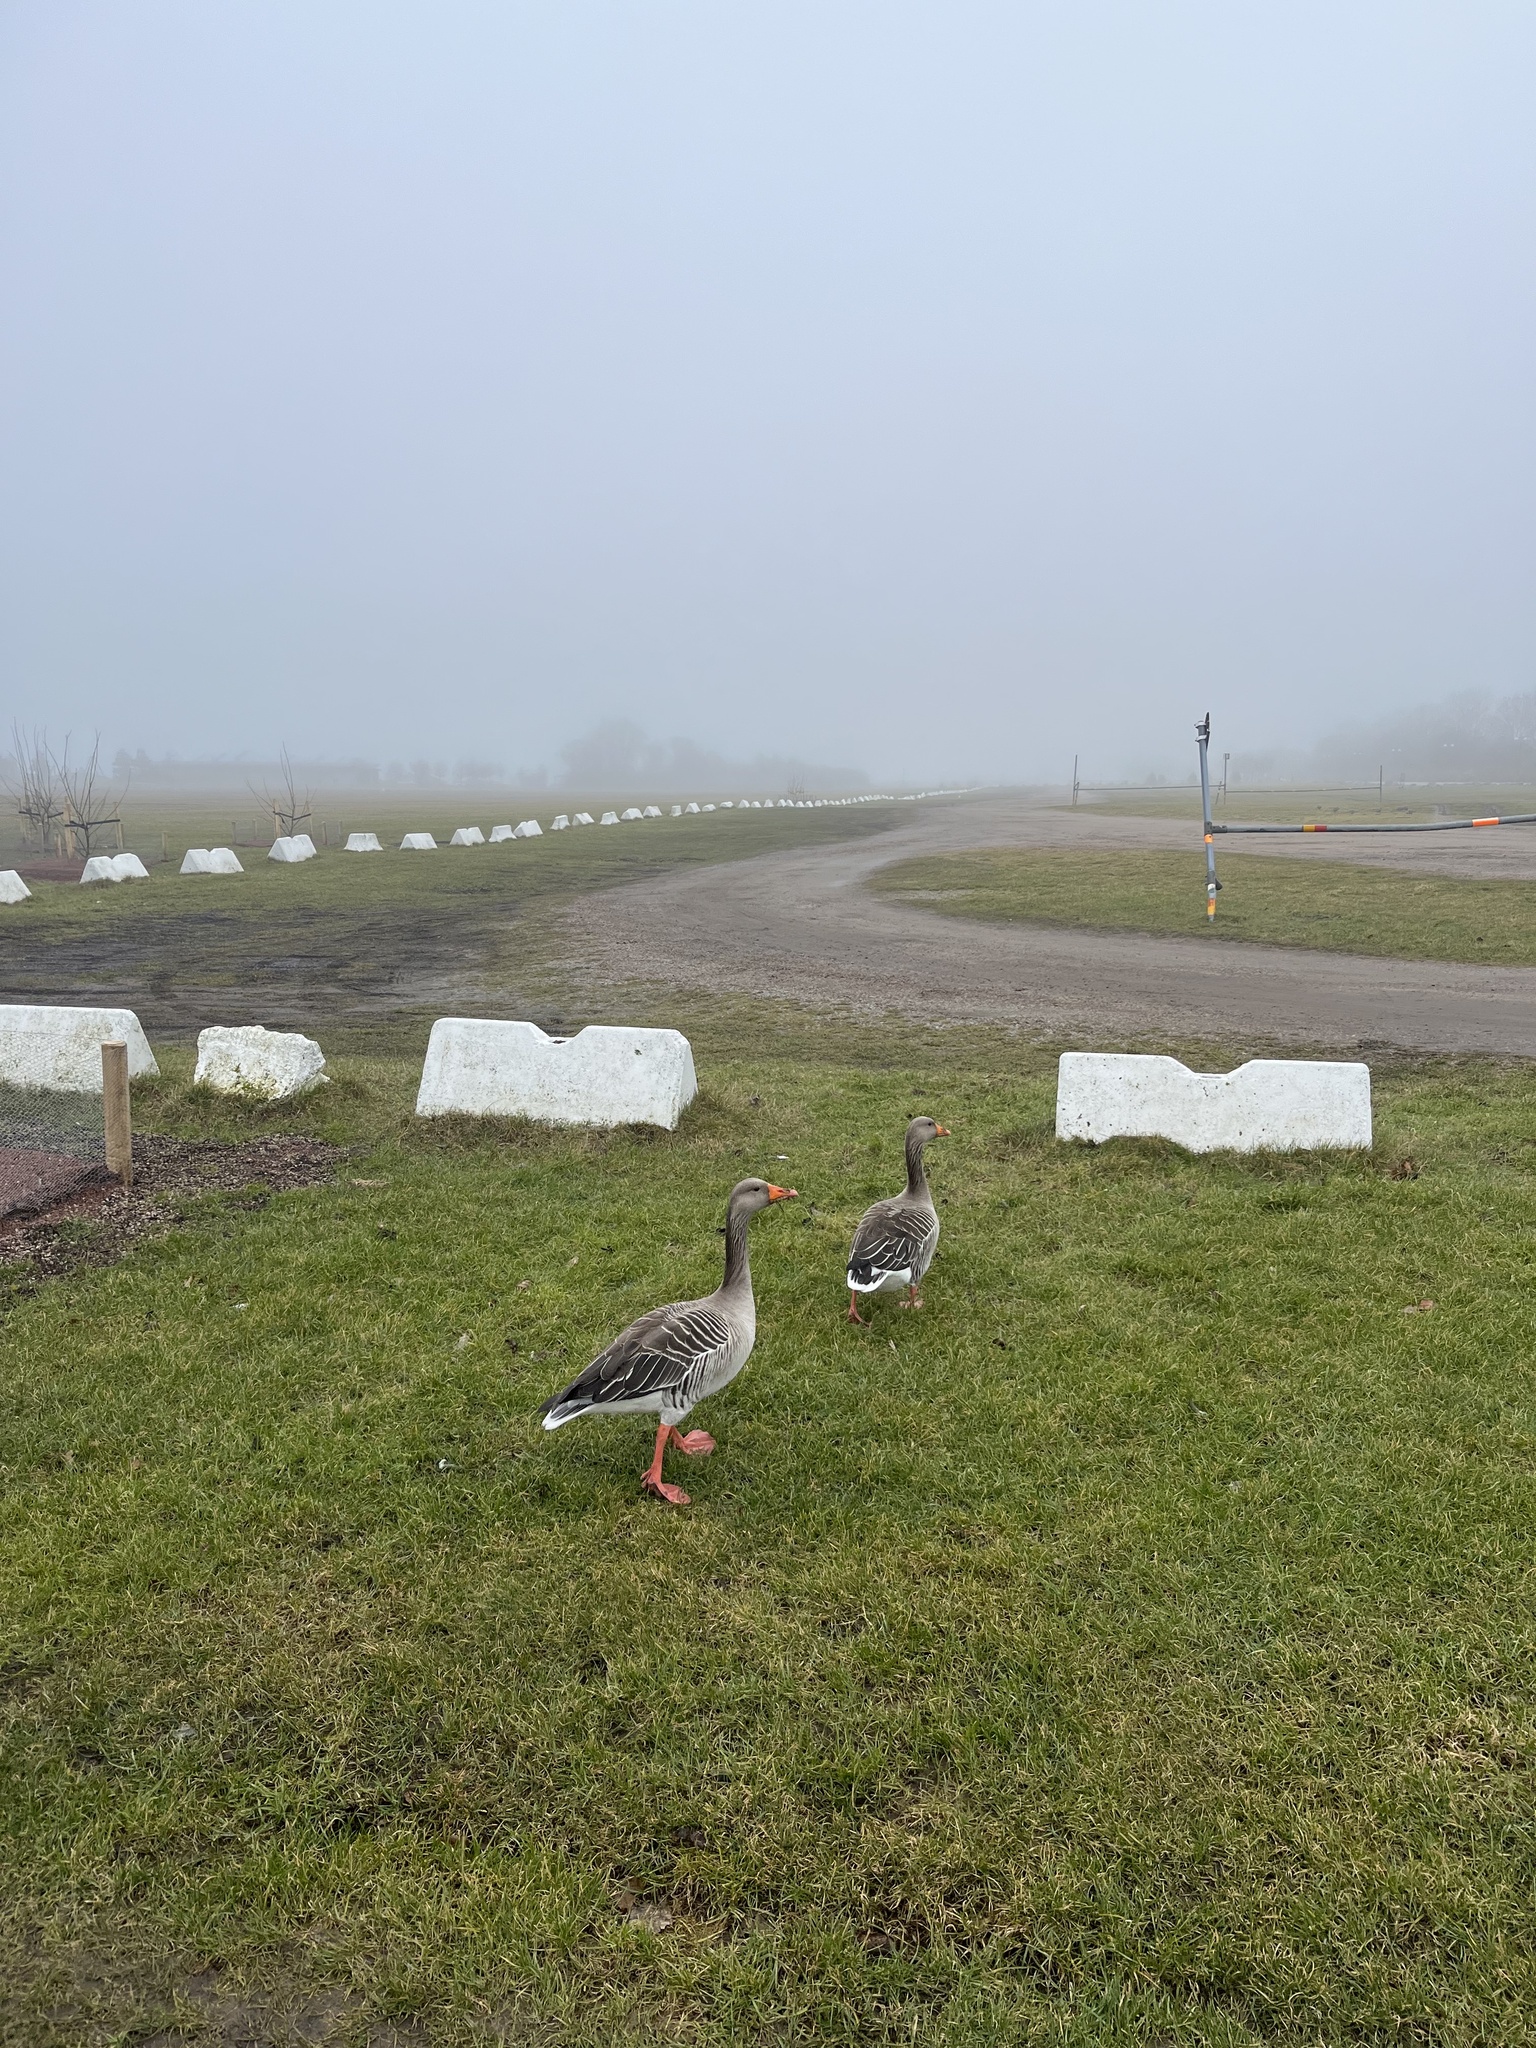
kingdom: Animalia
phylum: Chordata
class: Aves
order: Anseriformes
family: Anatidae
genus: Anser
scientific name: Anser anser
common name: Greylag goose
